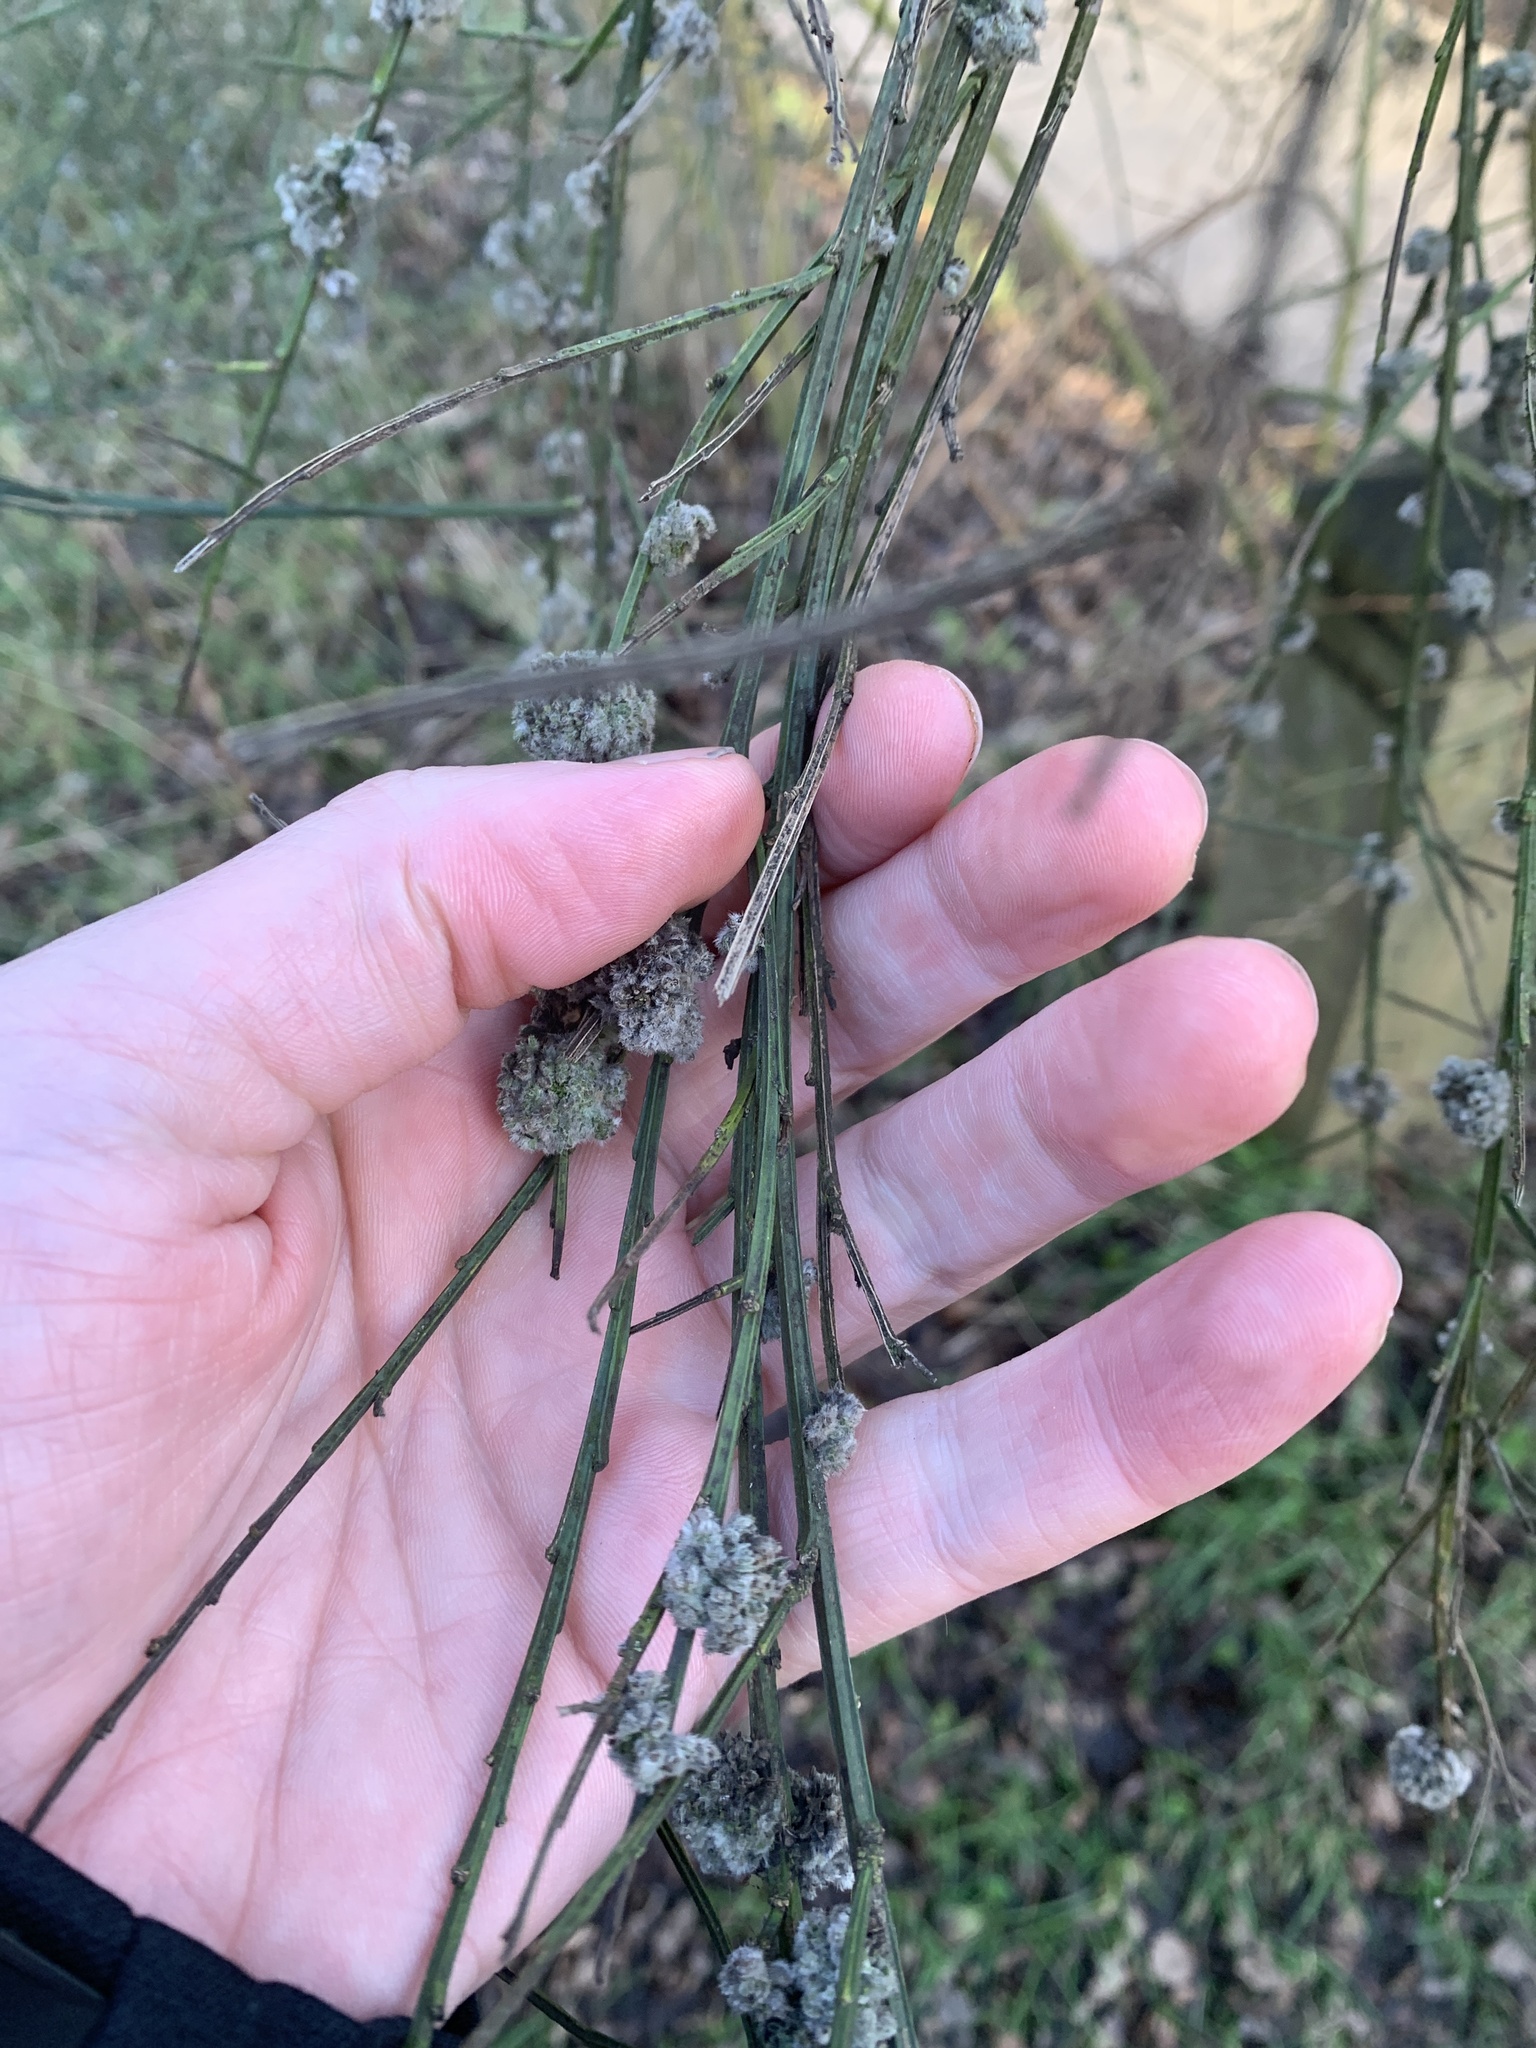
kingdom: Plantae
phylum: Tracheophyta
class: Magnoliopsida
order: Fabales
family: Fabaceae
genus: Cytisus
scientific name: Cytisus scoparius
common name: Scotch broom
